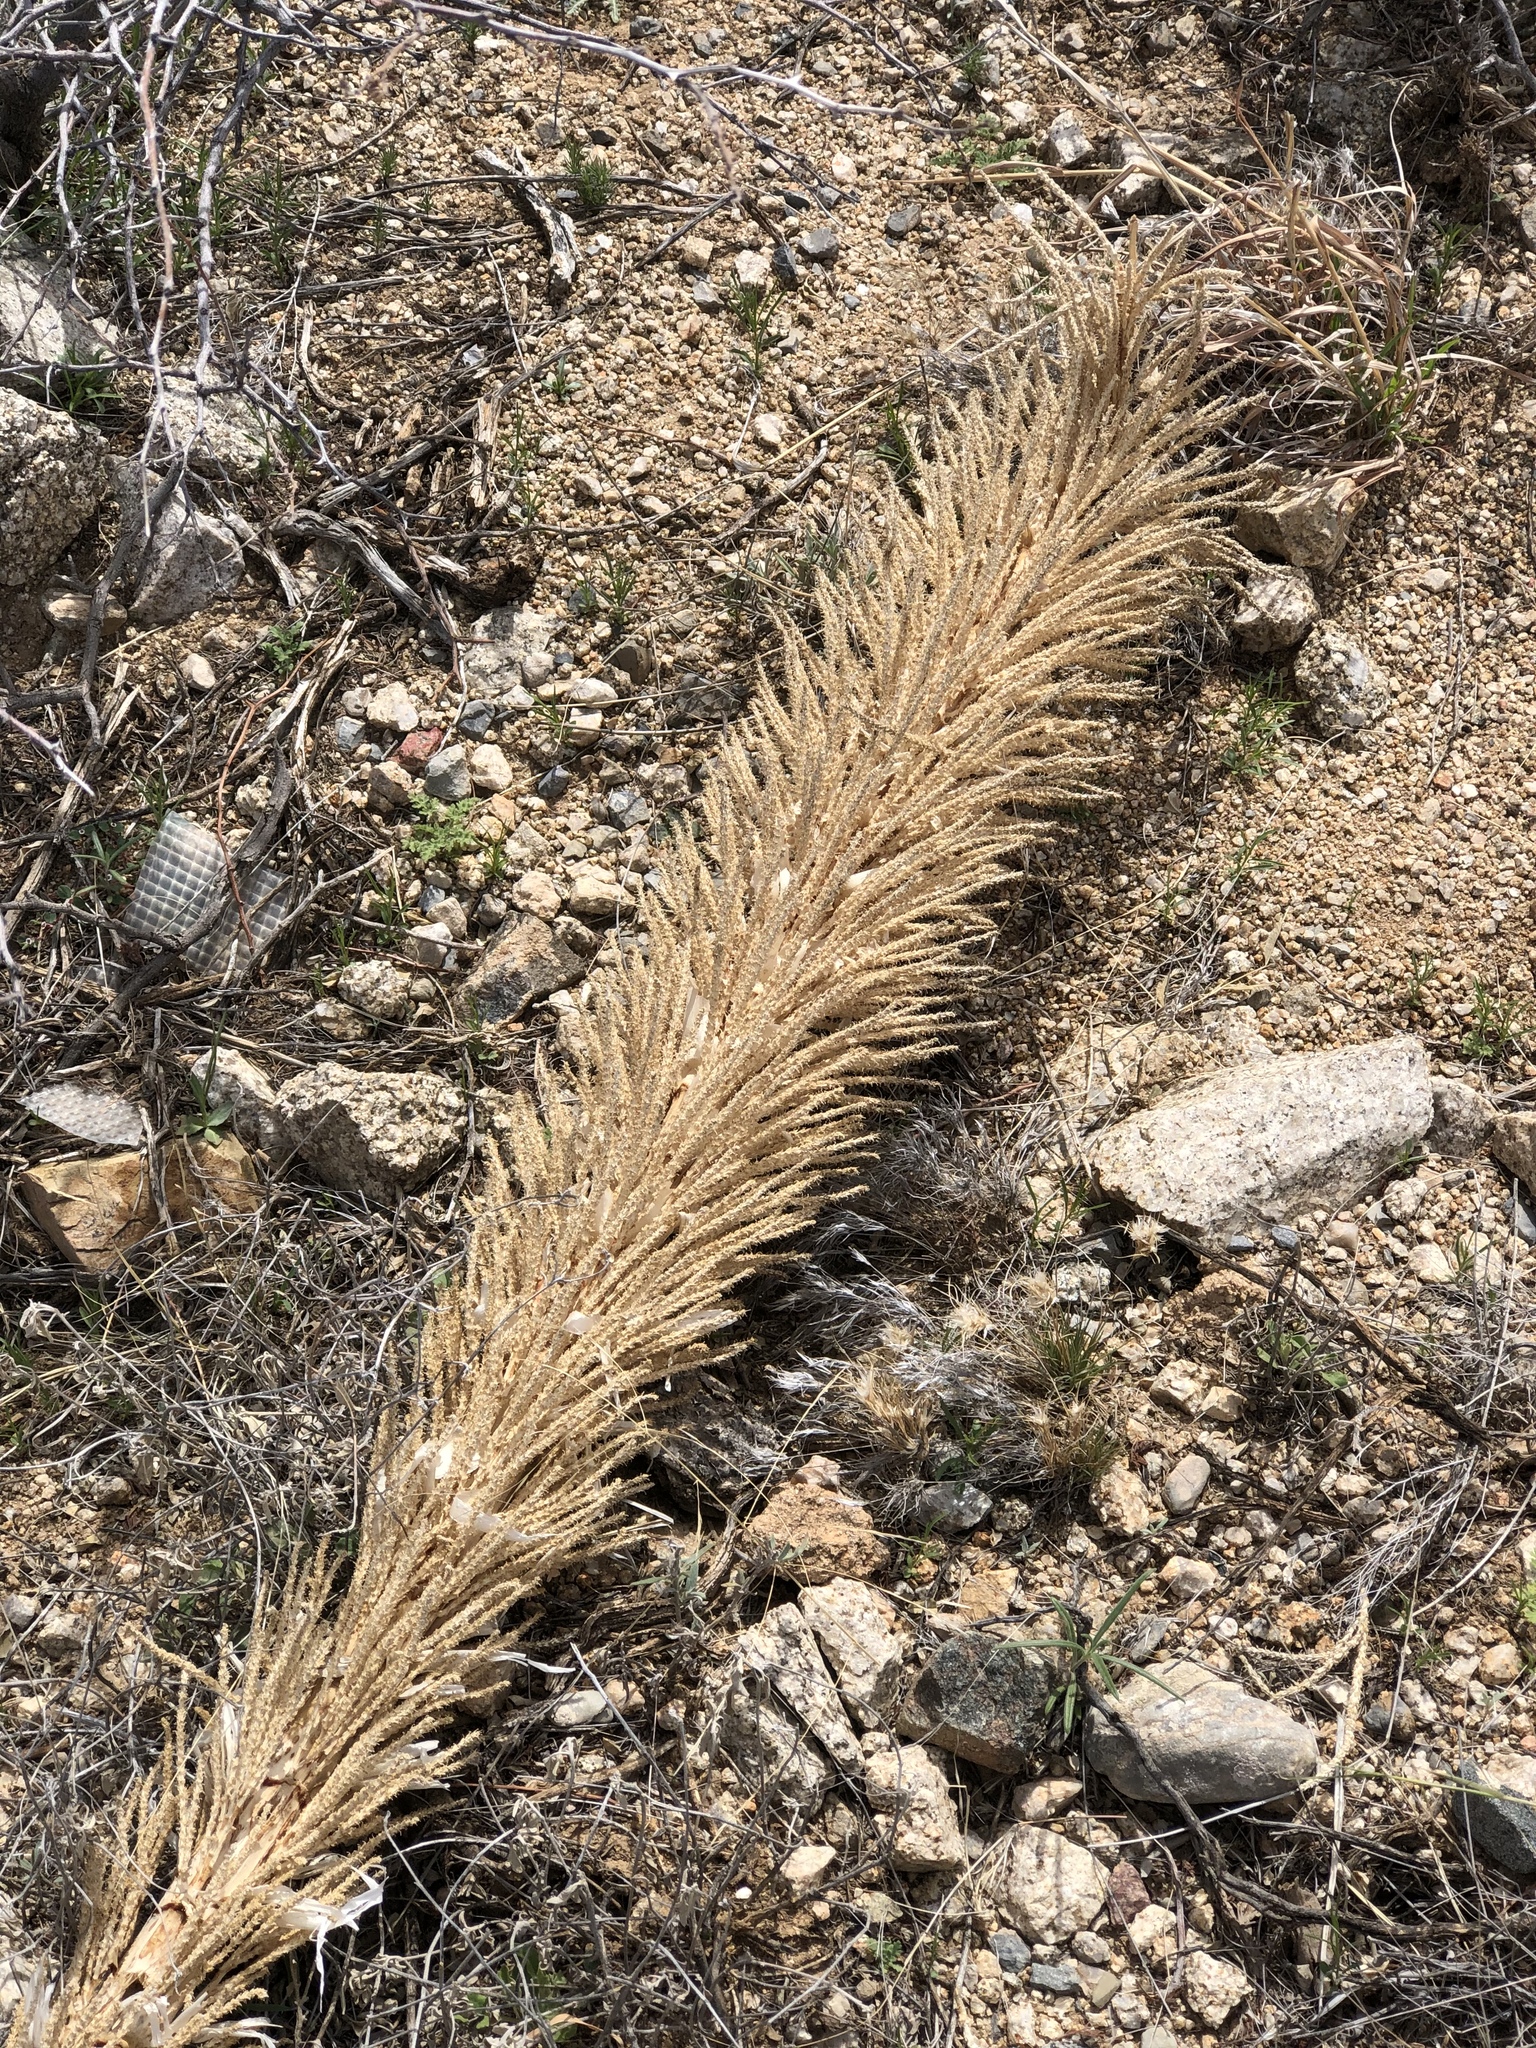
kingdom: Plantae
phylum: Tracheophyta
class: Liliopsida
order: Asparagales
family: Asparagaceae
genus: Dasylirion
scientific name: Dasylirion wheeleri
